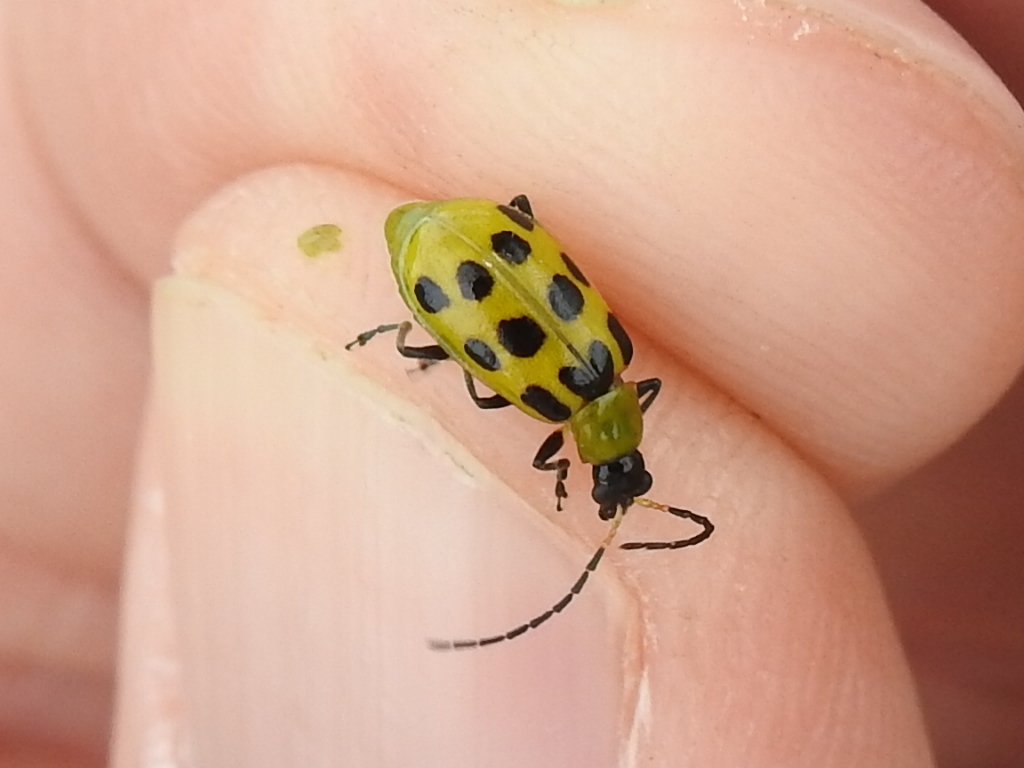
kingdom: Animalia
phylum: Arthropoda
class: Insecta
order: Coleoptera
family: Chrysomelidae
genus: Diabrotica
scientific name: Diabrotica undecimpunctata
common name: Spotted cucumber beetle
